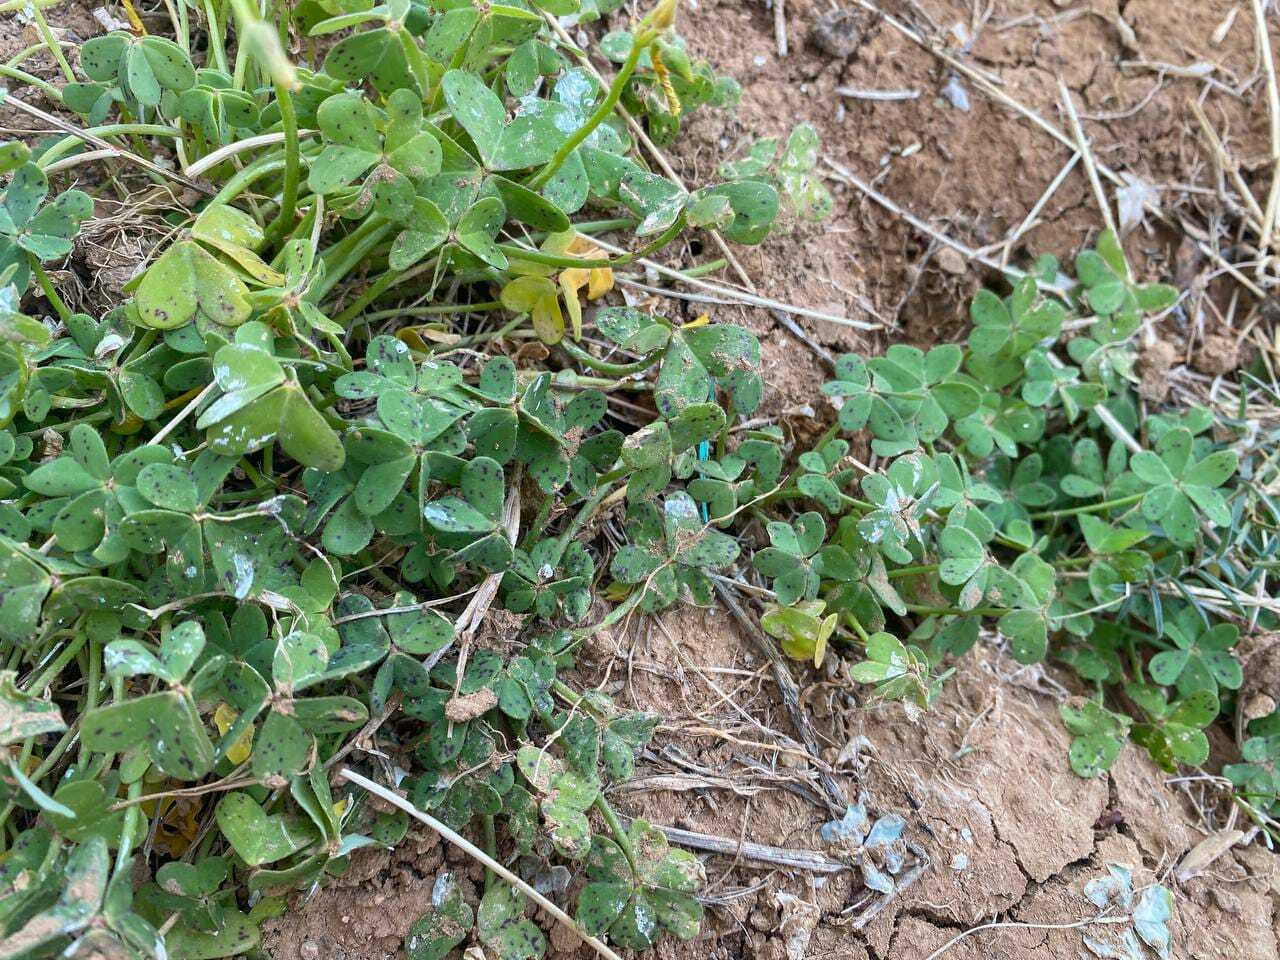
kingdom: Plantae
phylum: Tracheophyta
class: Magnoliopsida
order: Oxalidales
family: Oxalidaceae
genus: Oxalis
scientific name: Oxalis pes-caprae
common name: Bermuda-buttercup
